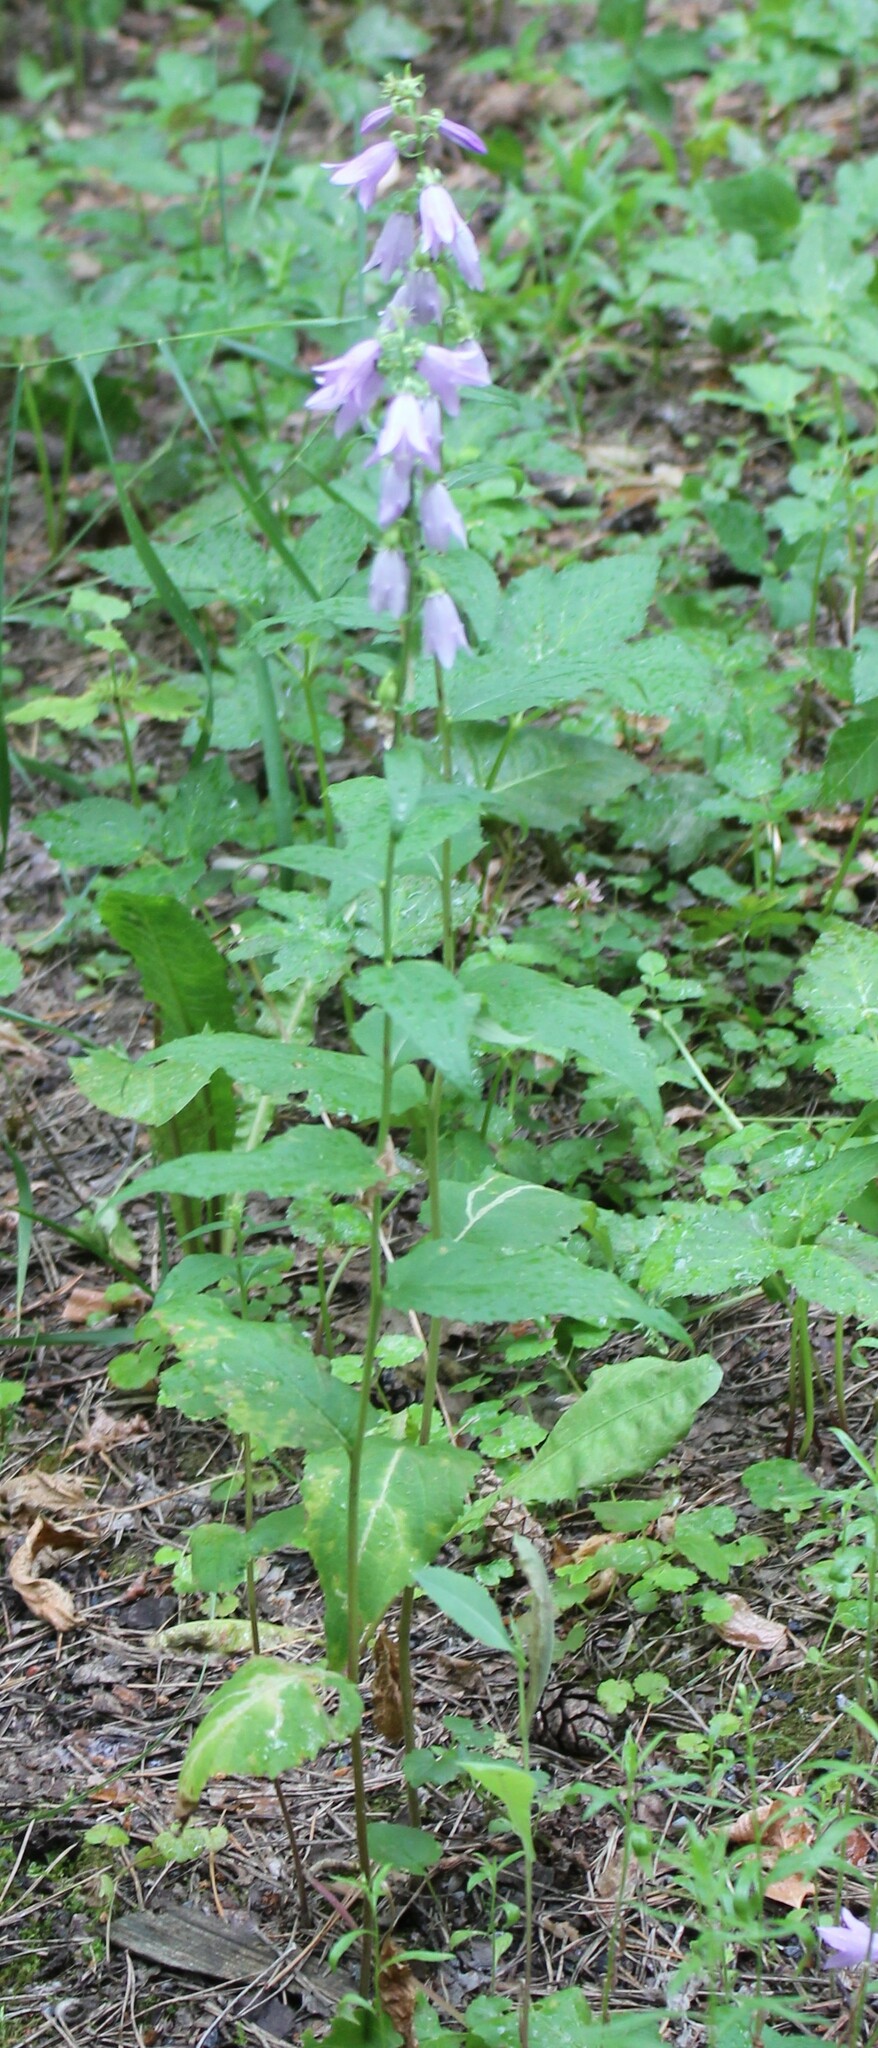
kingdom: Plantae
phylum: Tracheophyta
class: Magnoliopsida
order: Asterales
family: Campanulaceae
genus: Campanula
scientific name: Campanula rapunculoides
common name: Creeping bellflower
